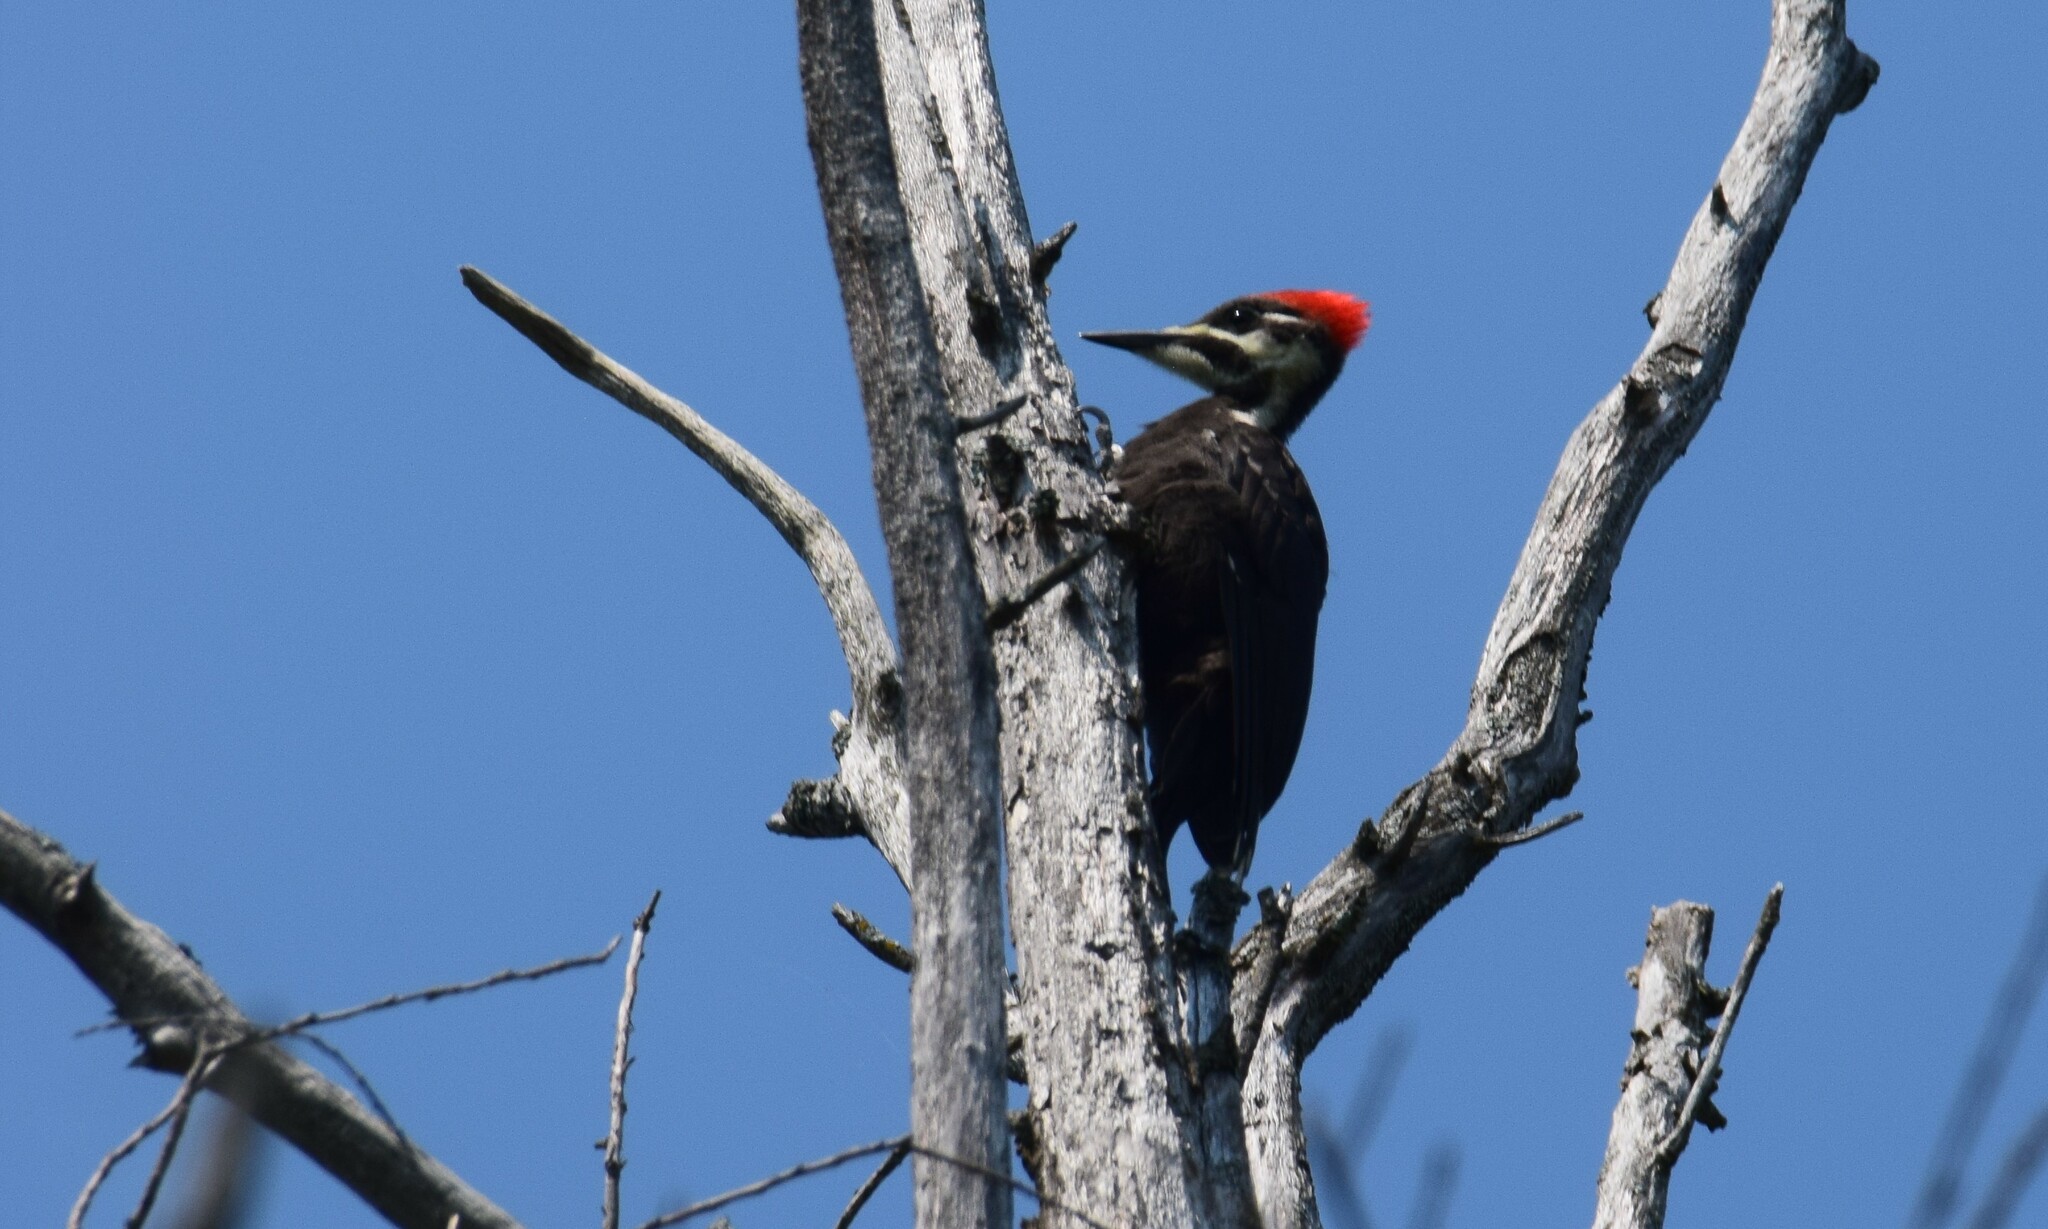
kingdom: Animalia
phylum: Chordata
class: Aves
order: Piciformes
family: Picidae
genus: Dryocopus
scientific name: Dryocopus pileatus
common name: Pileated woodpecker
